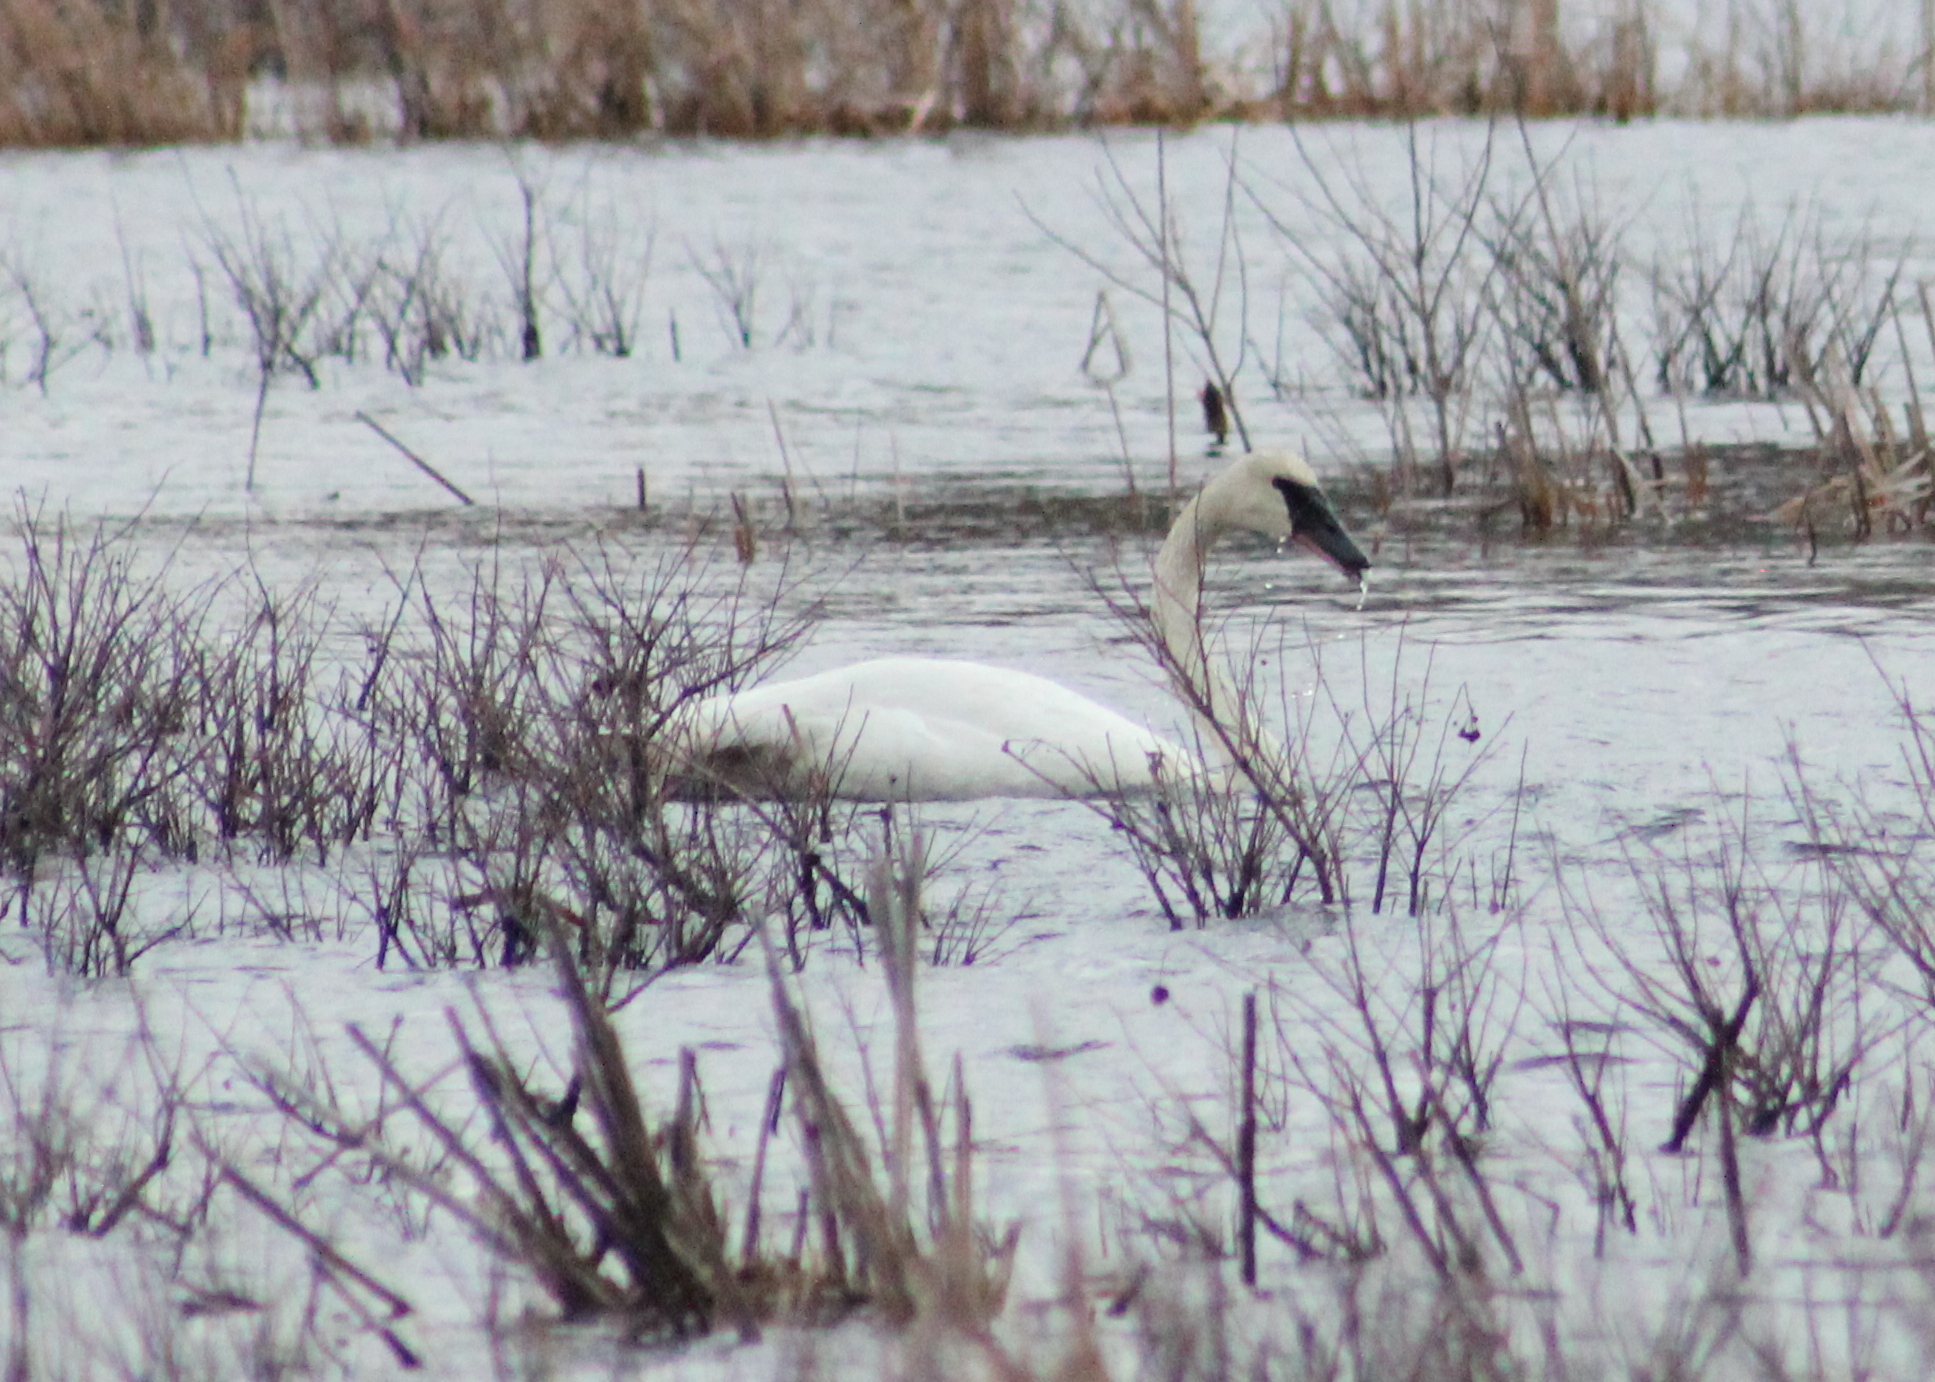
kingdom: Animalia
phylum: Chordata
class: Aves
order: Anseriformes
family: Anatidae
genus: Cygnus
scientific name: Cygnus buccinator
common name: Trumpeter swan
